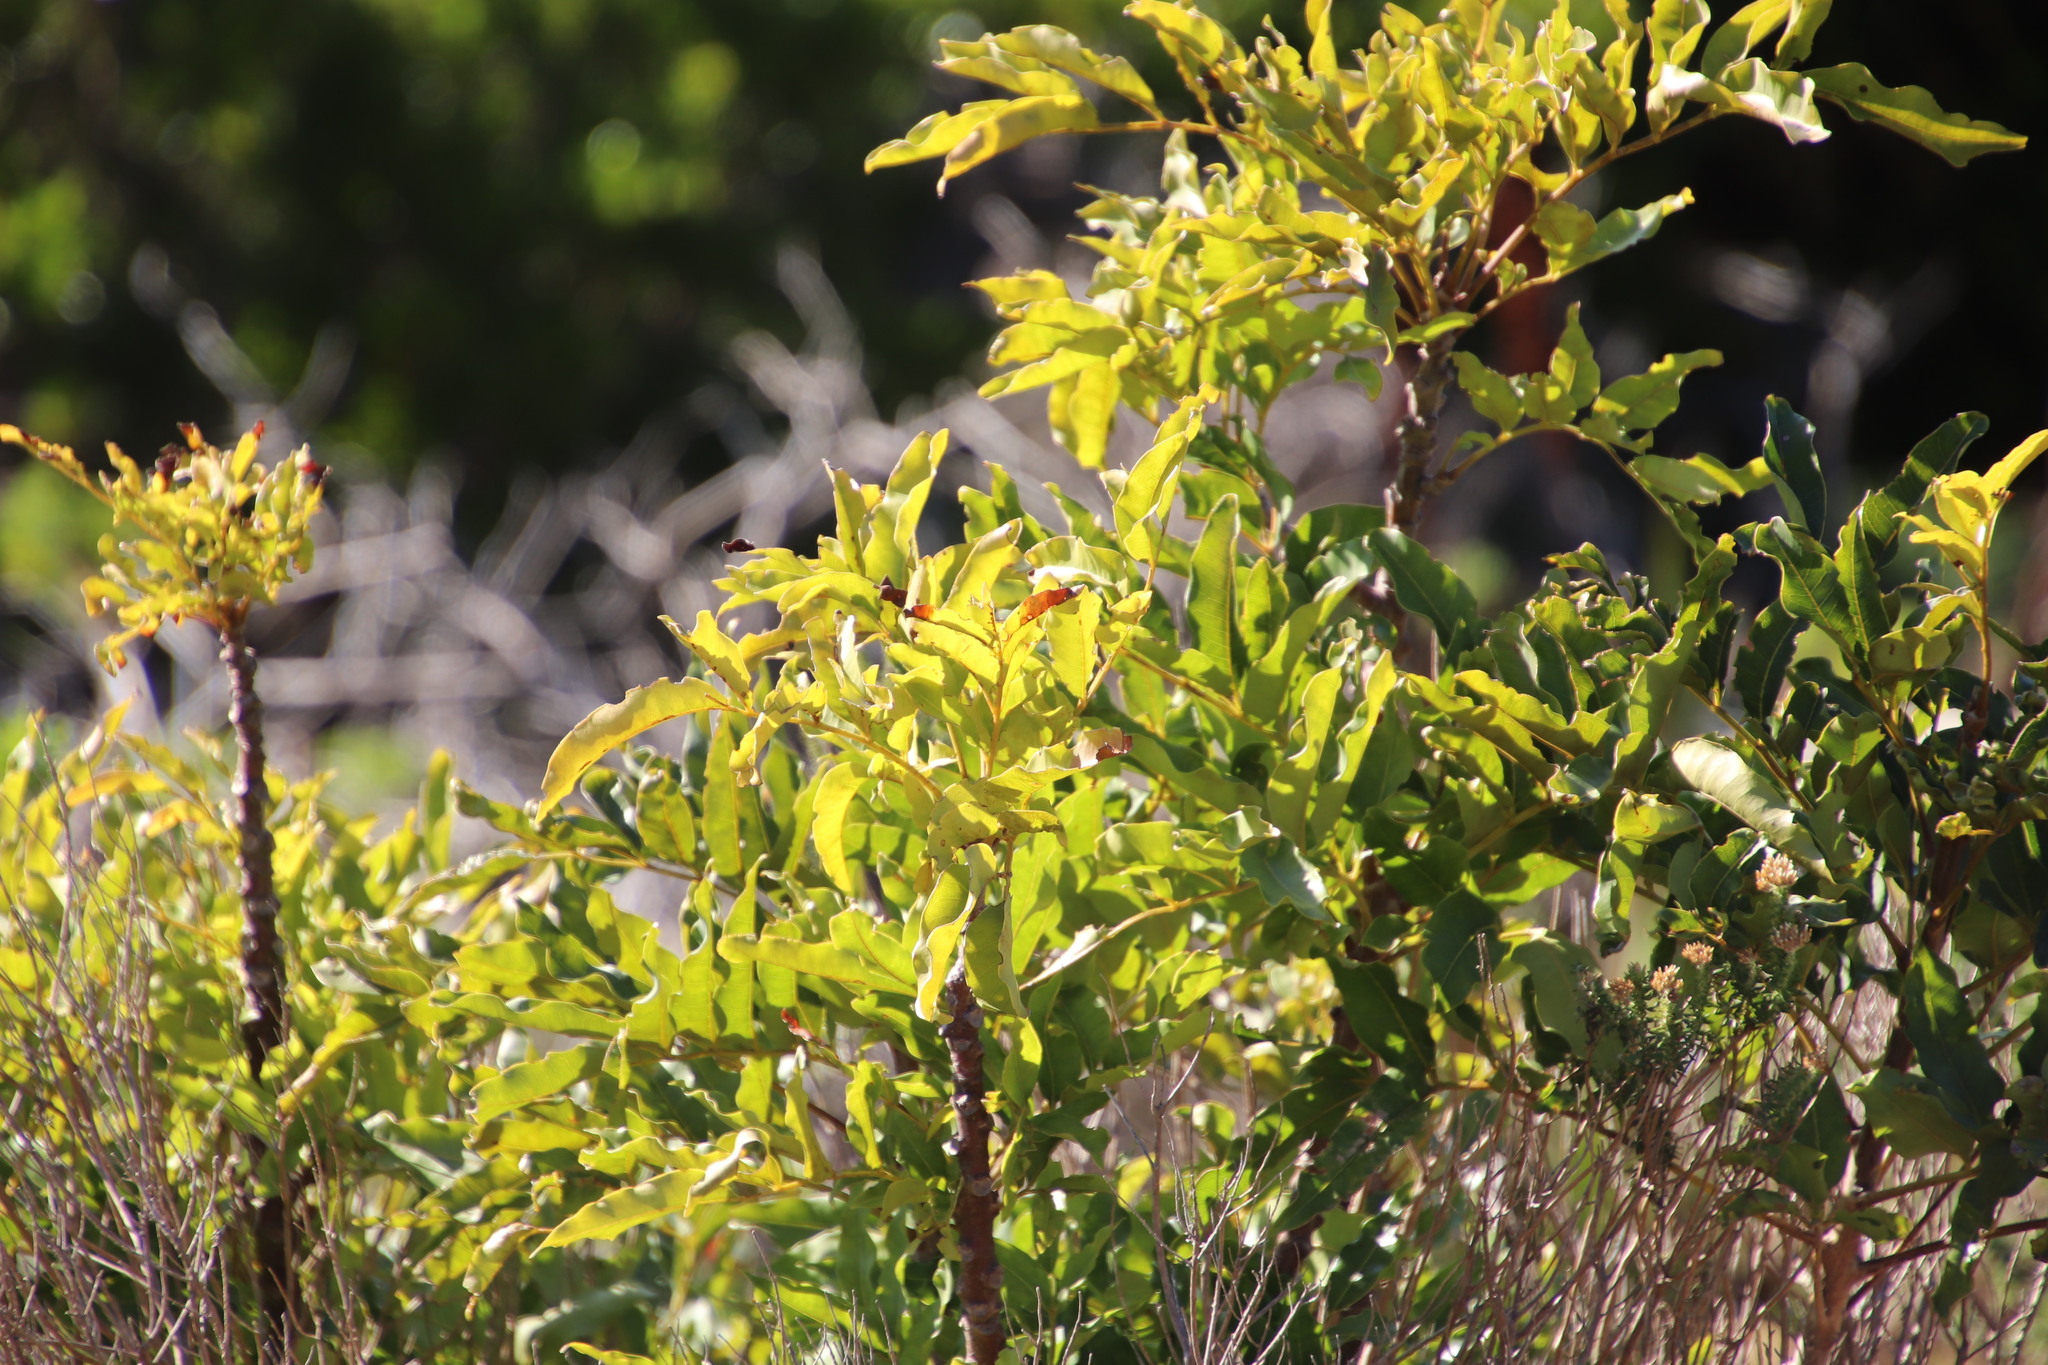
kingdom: Plantae
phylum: Tracheophyta
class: Magnoliopsida
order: Sapindales
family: Anacardiaceae
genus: Harpephyllum
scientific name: Harpephyllum caffrum
